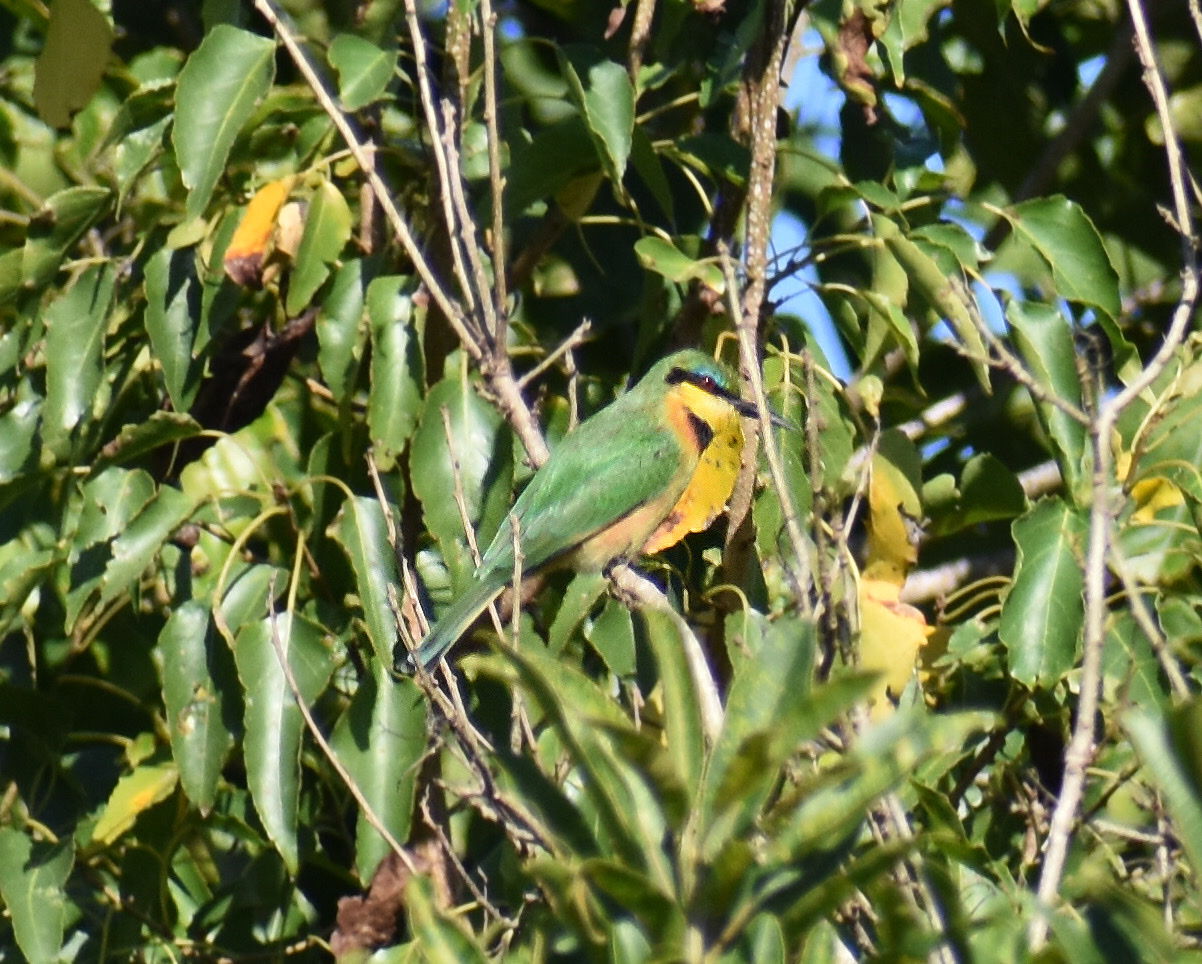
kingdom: Animalia
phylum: Chordata
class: Aves
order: Coraciiformes
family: Meropidae
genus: Merops
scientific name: Merops pusillus
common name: Little bee-eater
